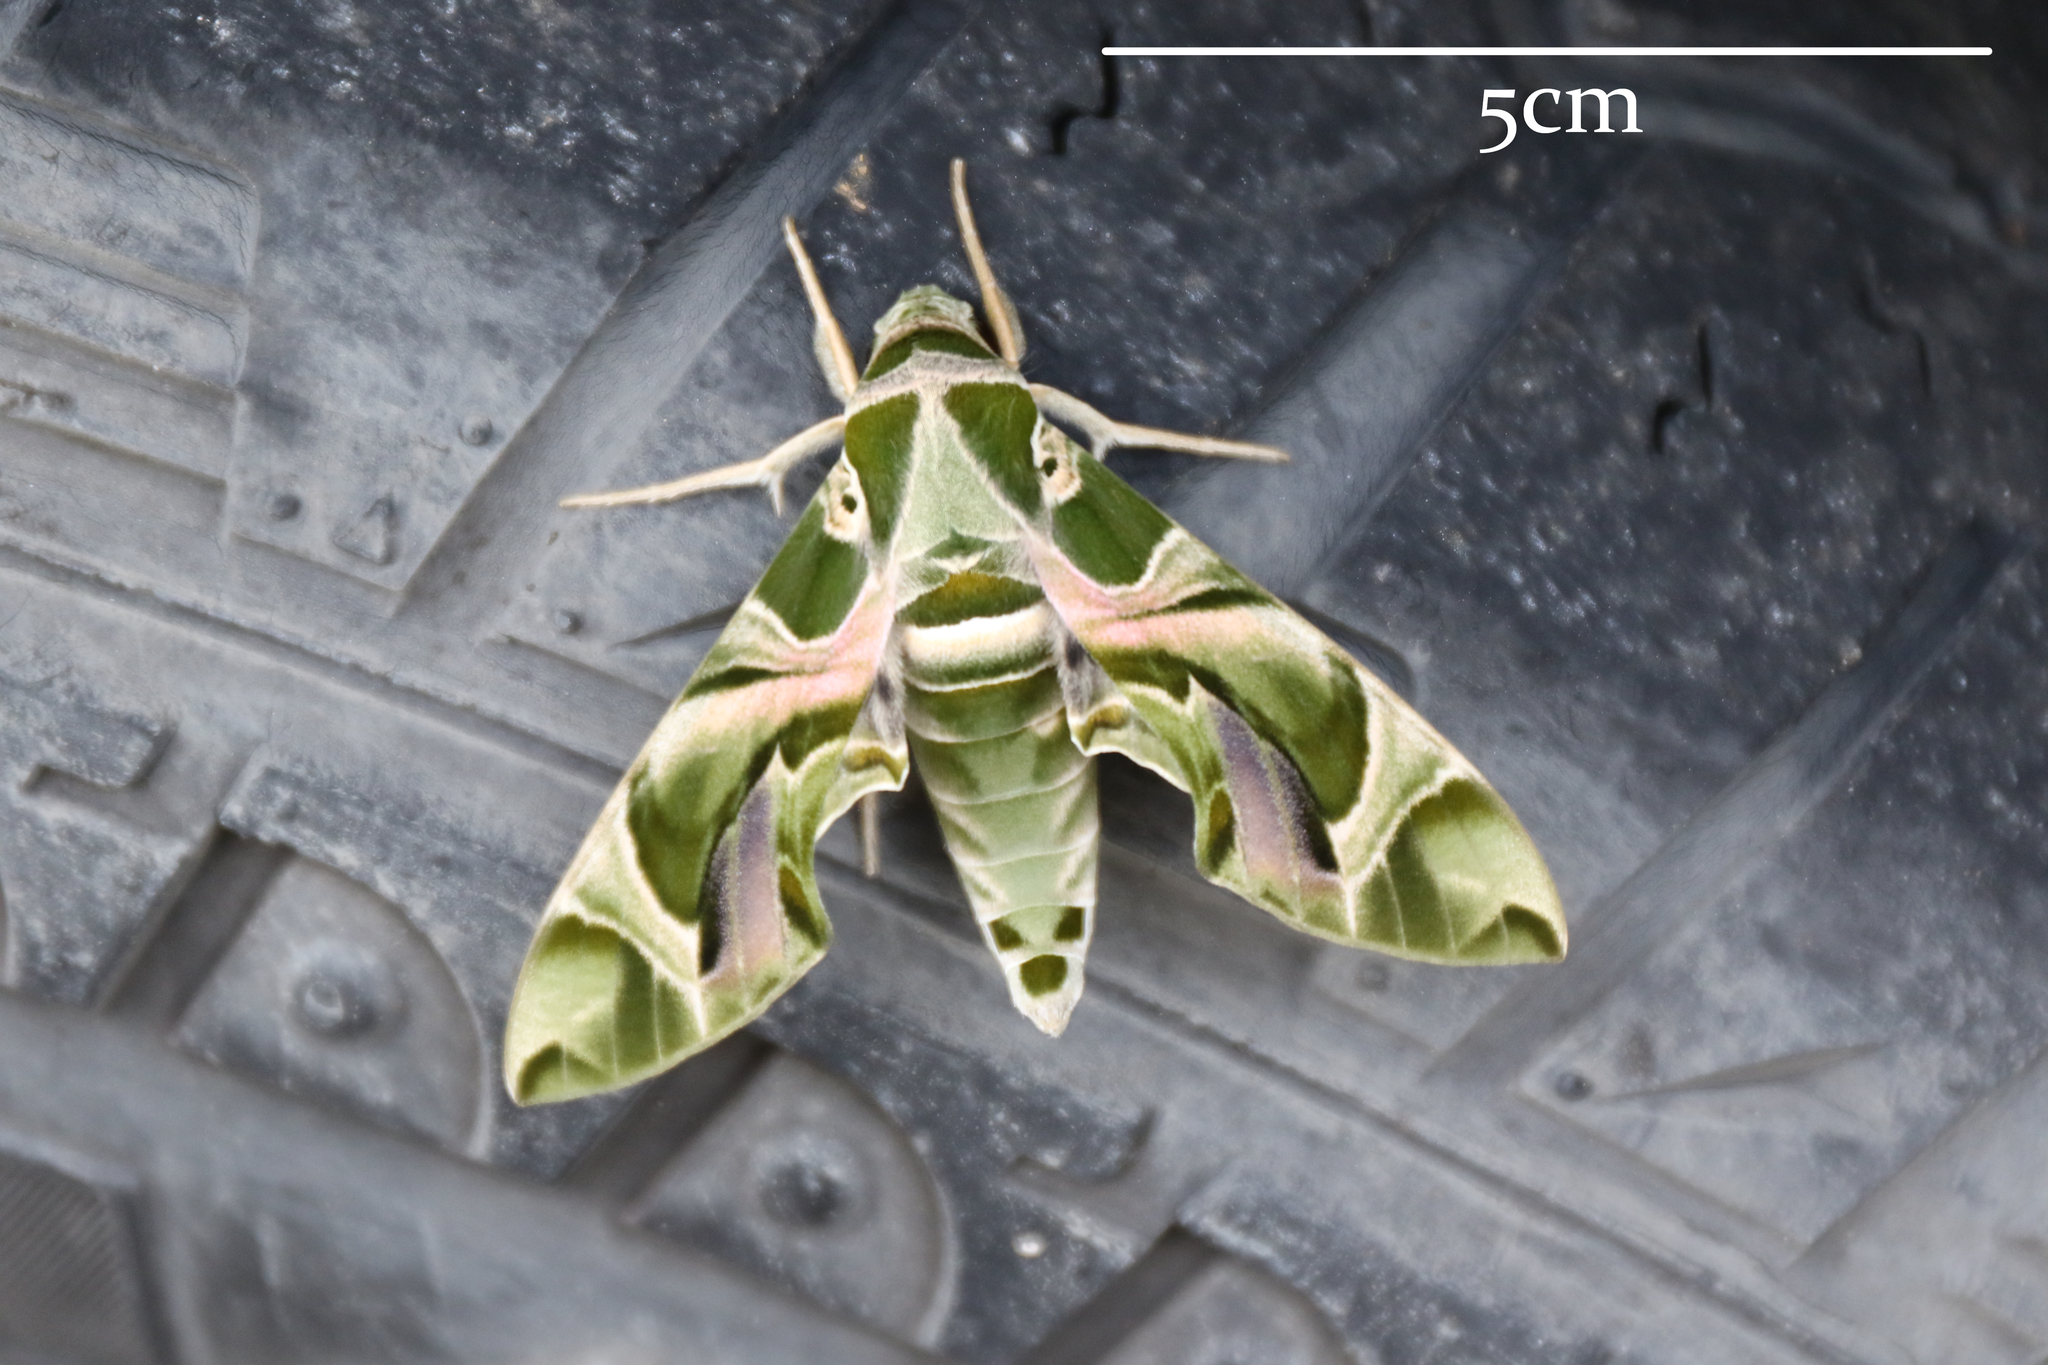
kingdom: Animalia
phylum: Arthropoda
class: Insecta
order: Lepidoptera
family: Sphingidae
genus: Daphnis
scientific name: Daphnis nerii
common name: Oleander hawk-moth
